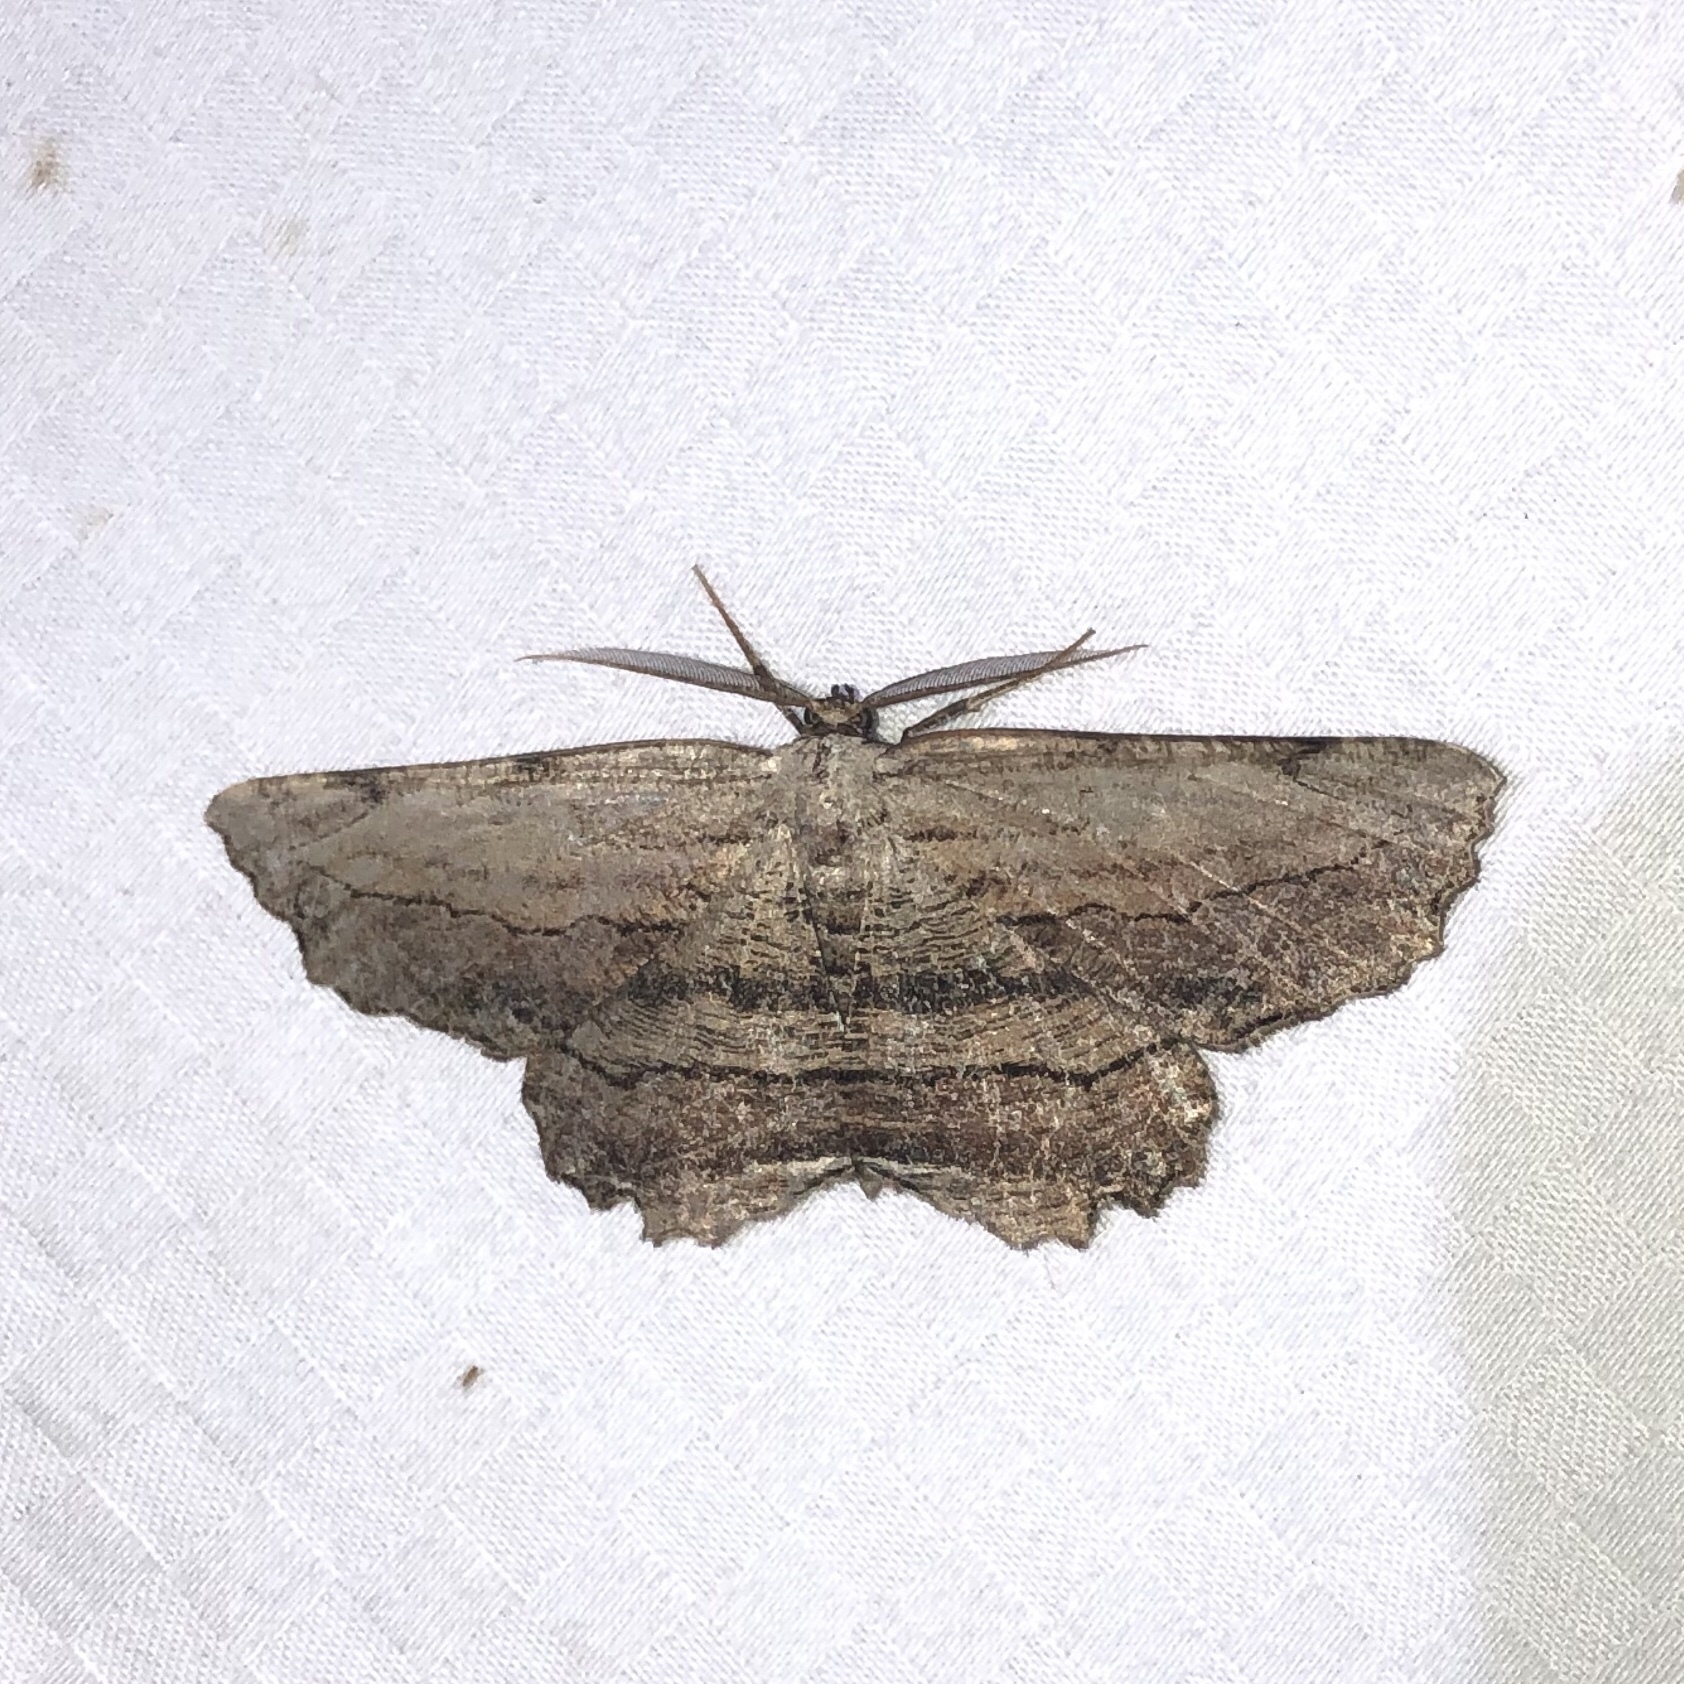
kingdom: Animalia
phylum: Arthropoda
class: Insecta
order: Lepidoptera
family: Geometridae
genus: Lytrosis
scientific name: Lytrosis unitaria
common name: Common lytrosis
